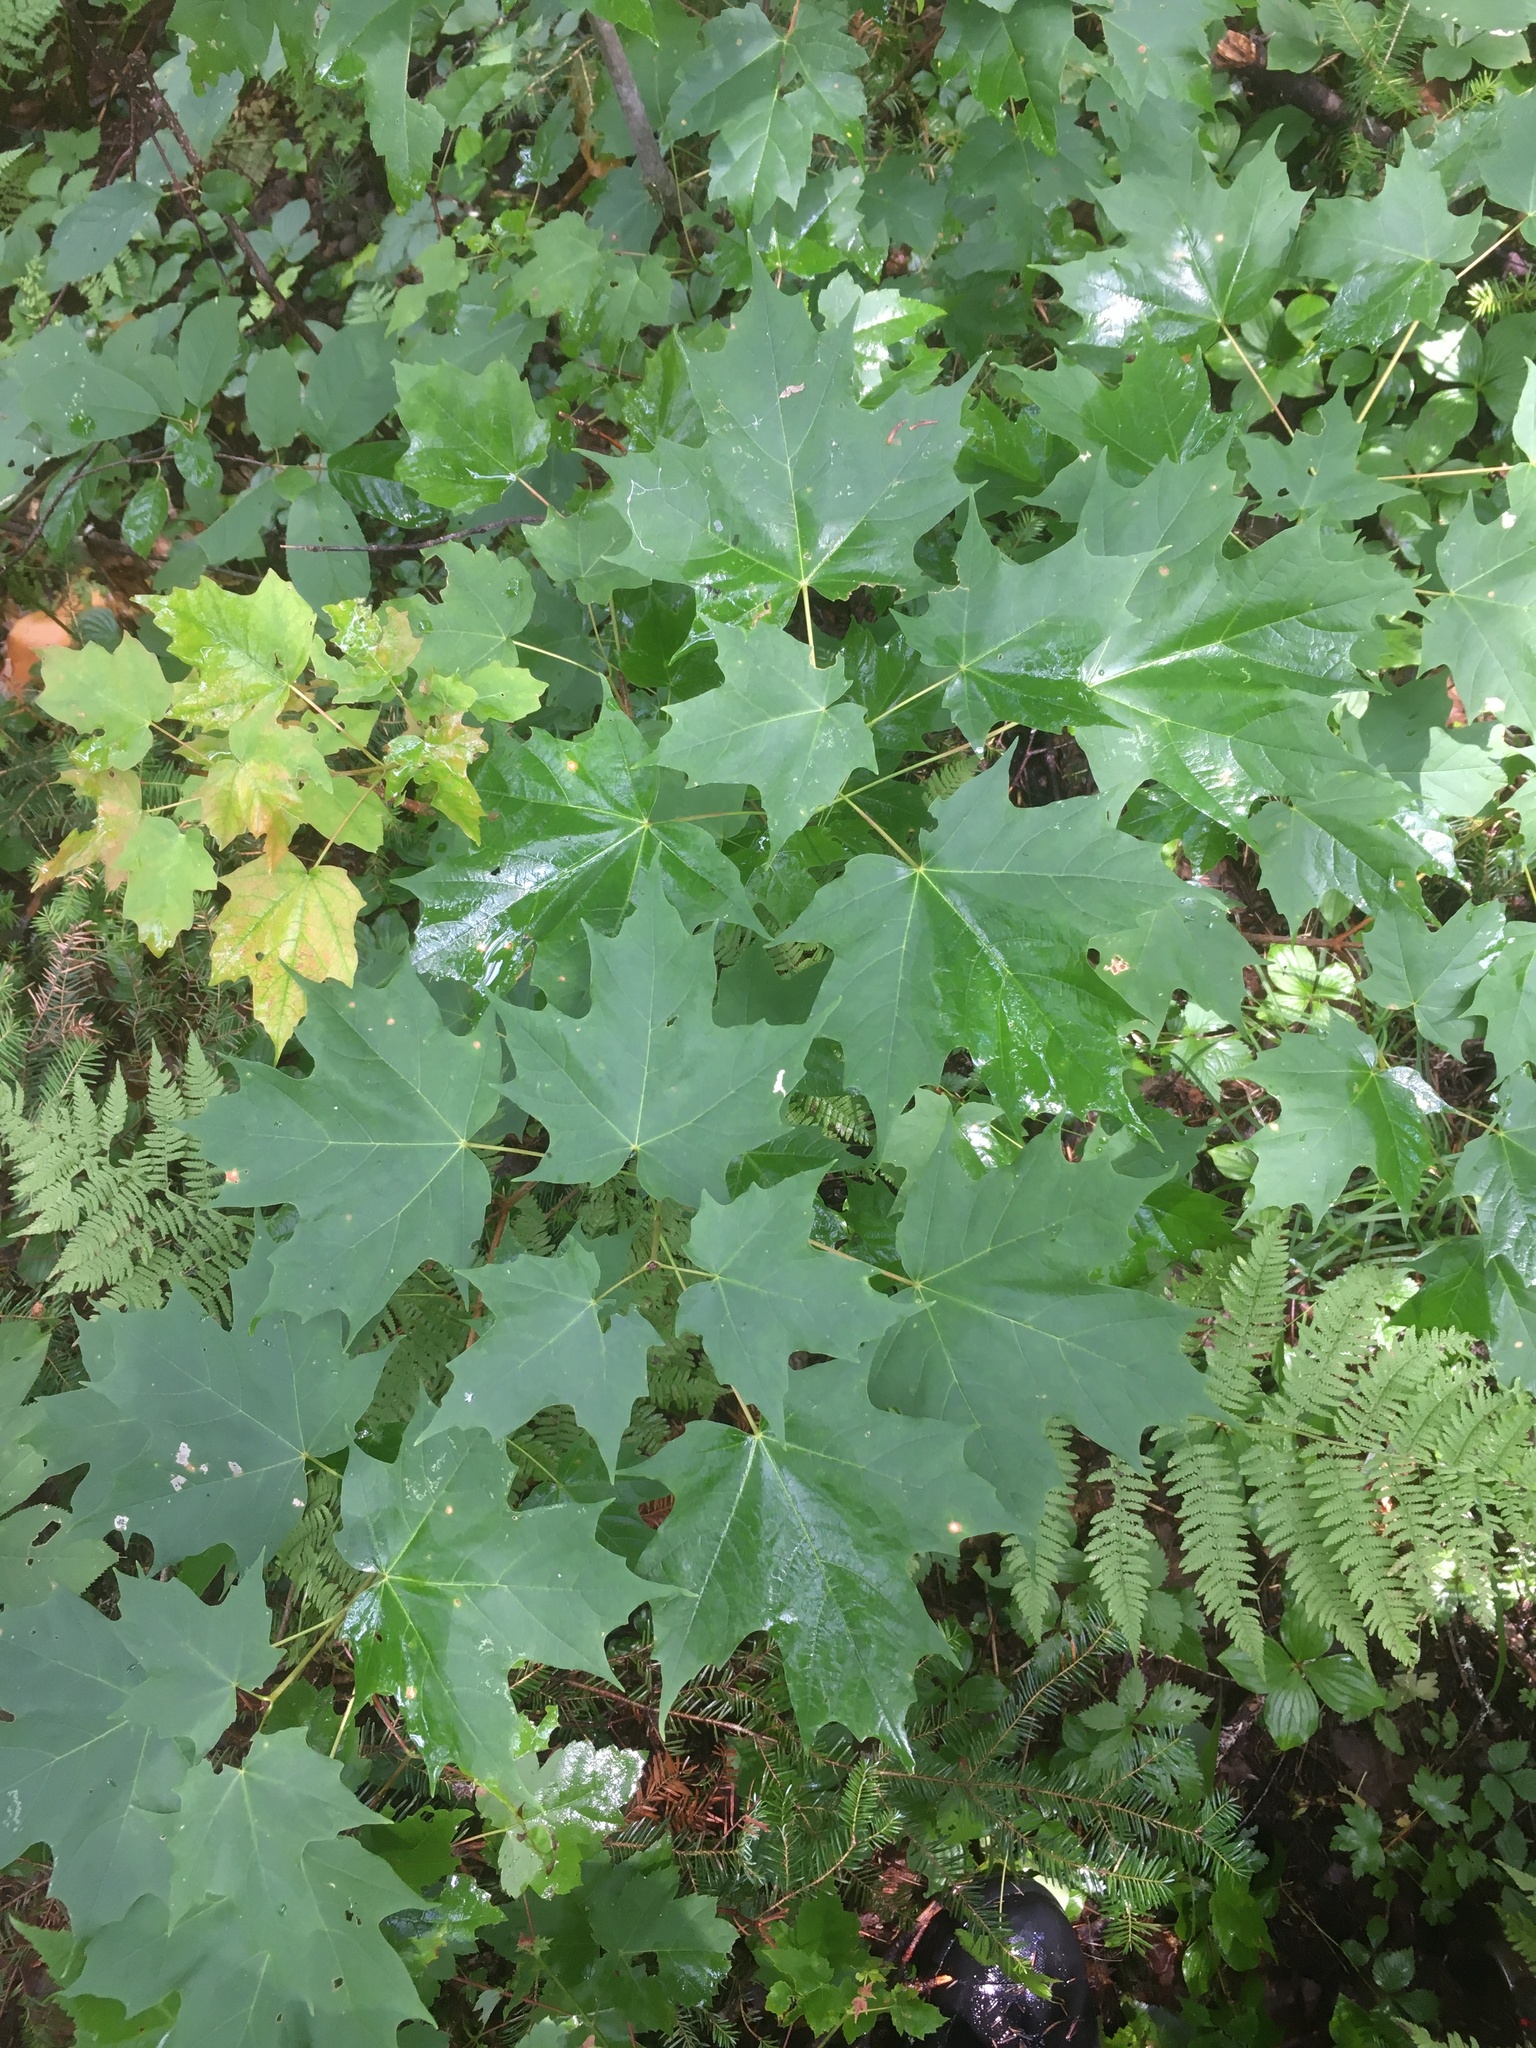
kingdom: Plantae
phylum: Tracheophyta
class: Magnoliopsida
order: Sapindales
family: Sapindaceae
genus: Acer
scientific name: Acer saccharum
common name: Sugar maple
